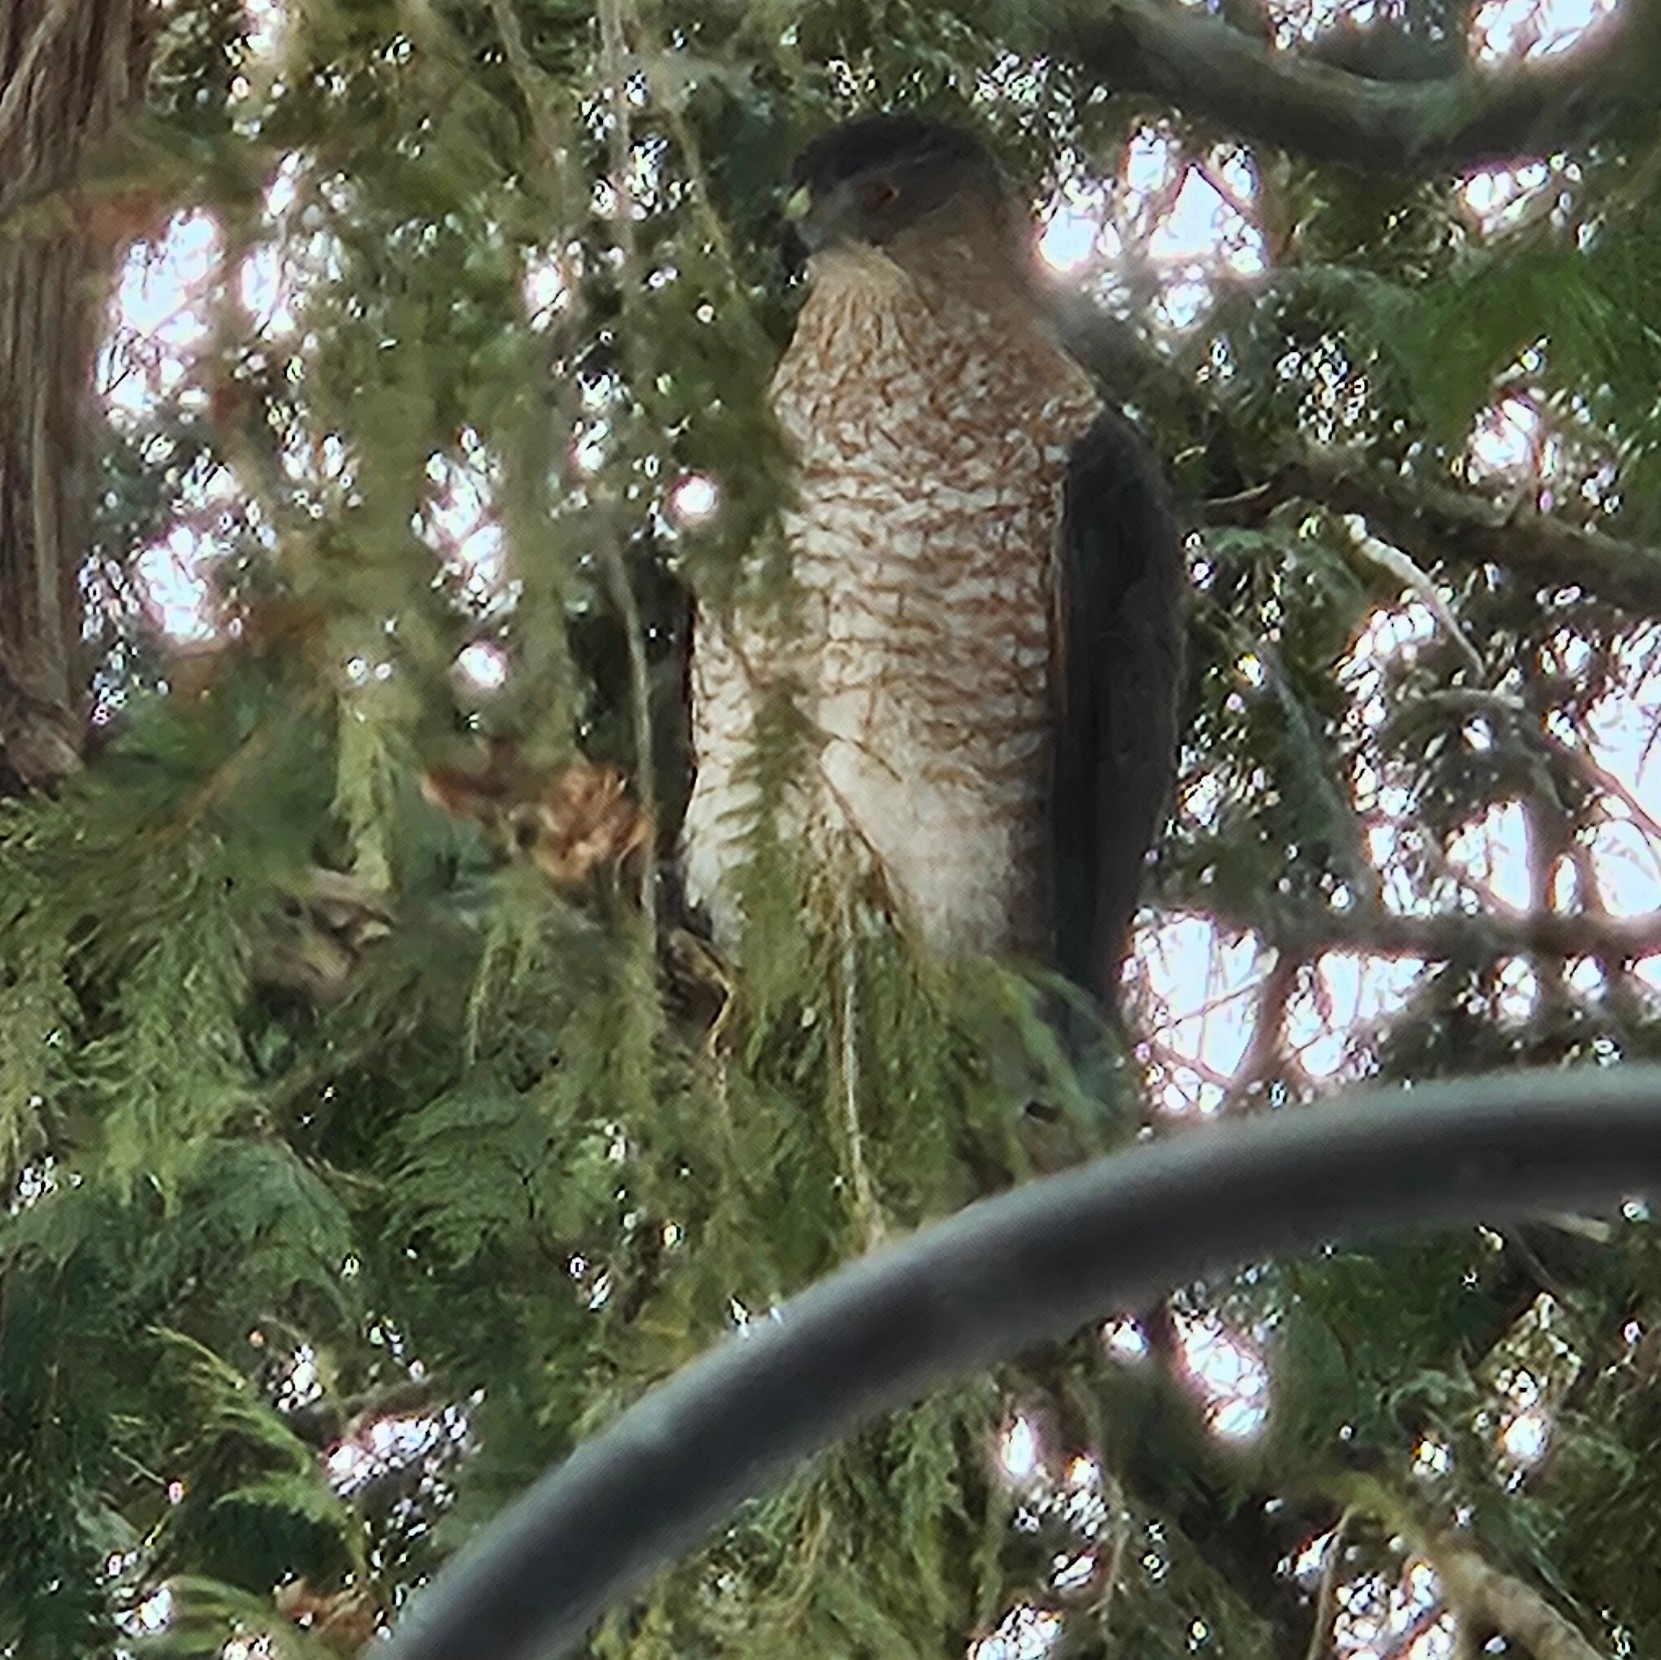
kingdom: Animalia
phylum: Chordata
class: Aves
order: Accipitriformes
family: Accipitridae
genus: Accipiter
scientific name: Accipiter cooperii
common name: Cooper's hawk
